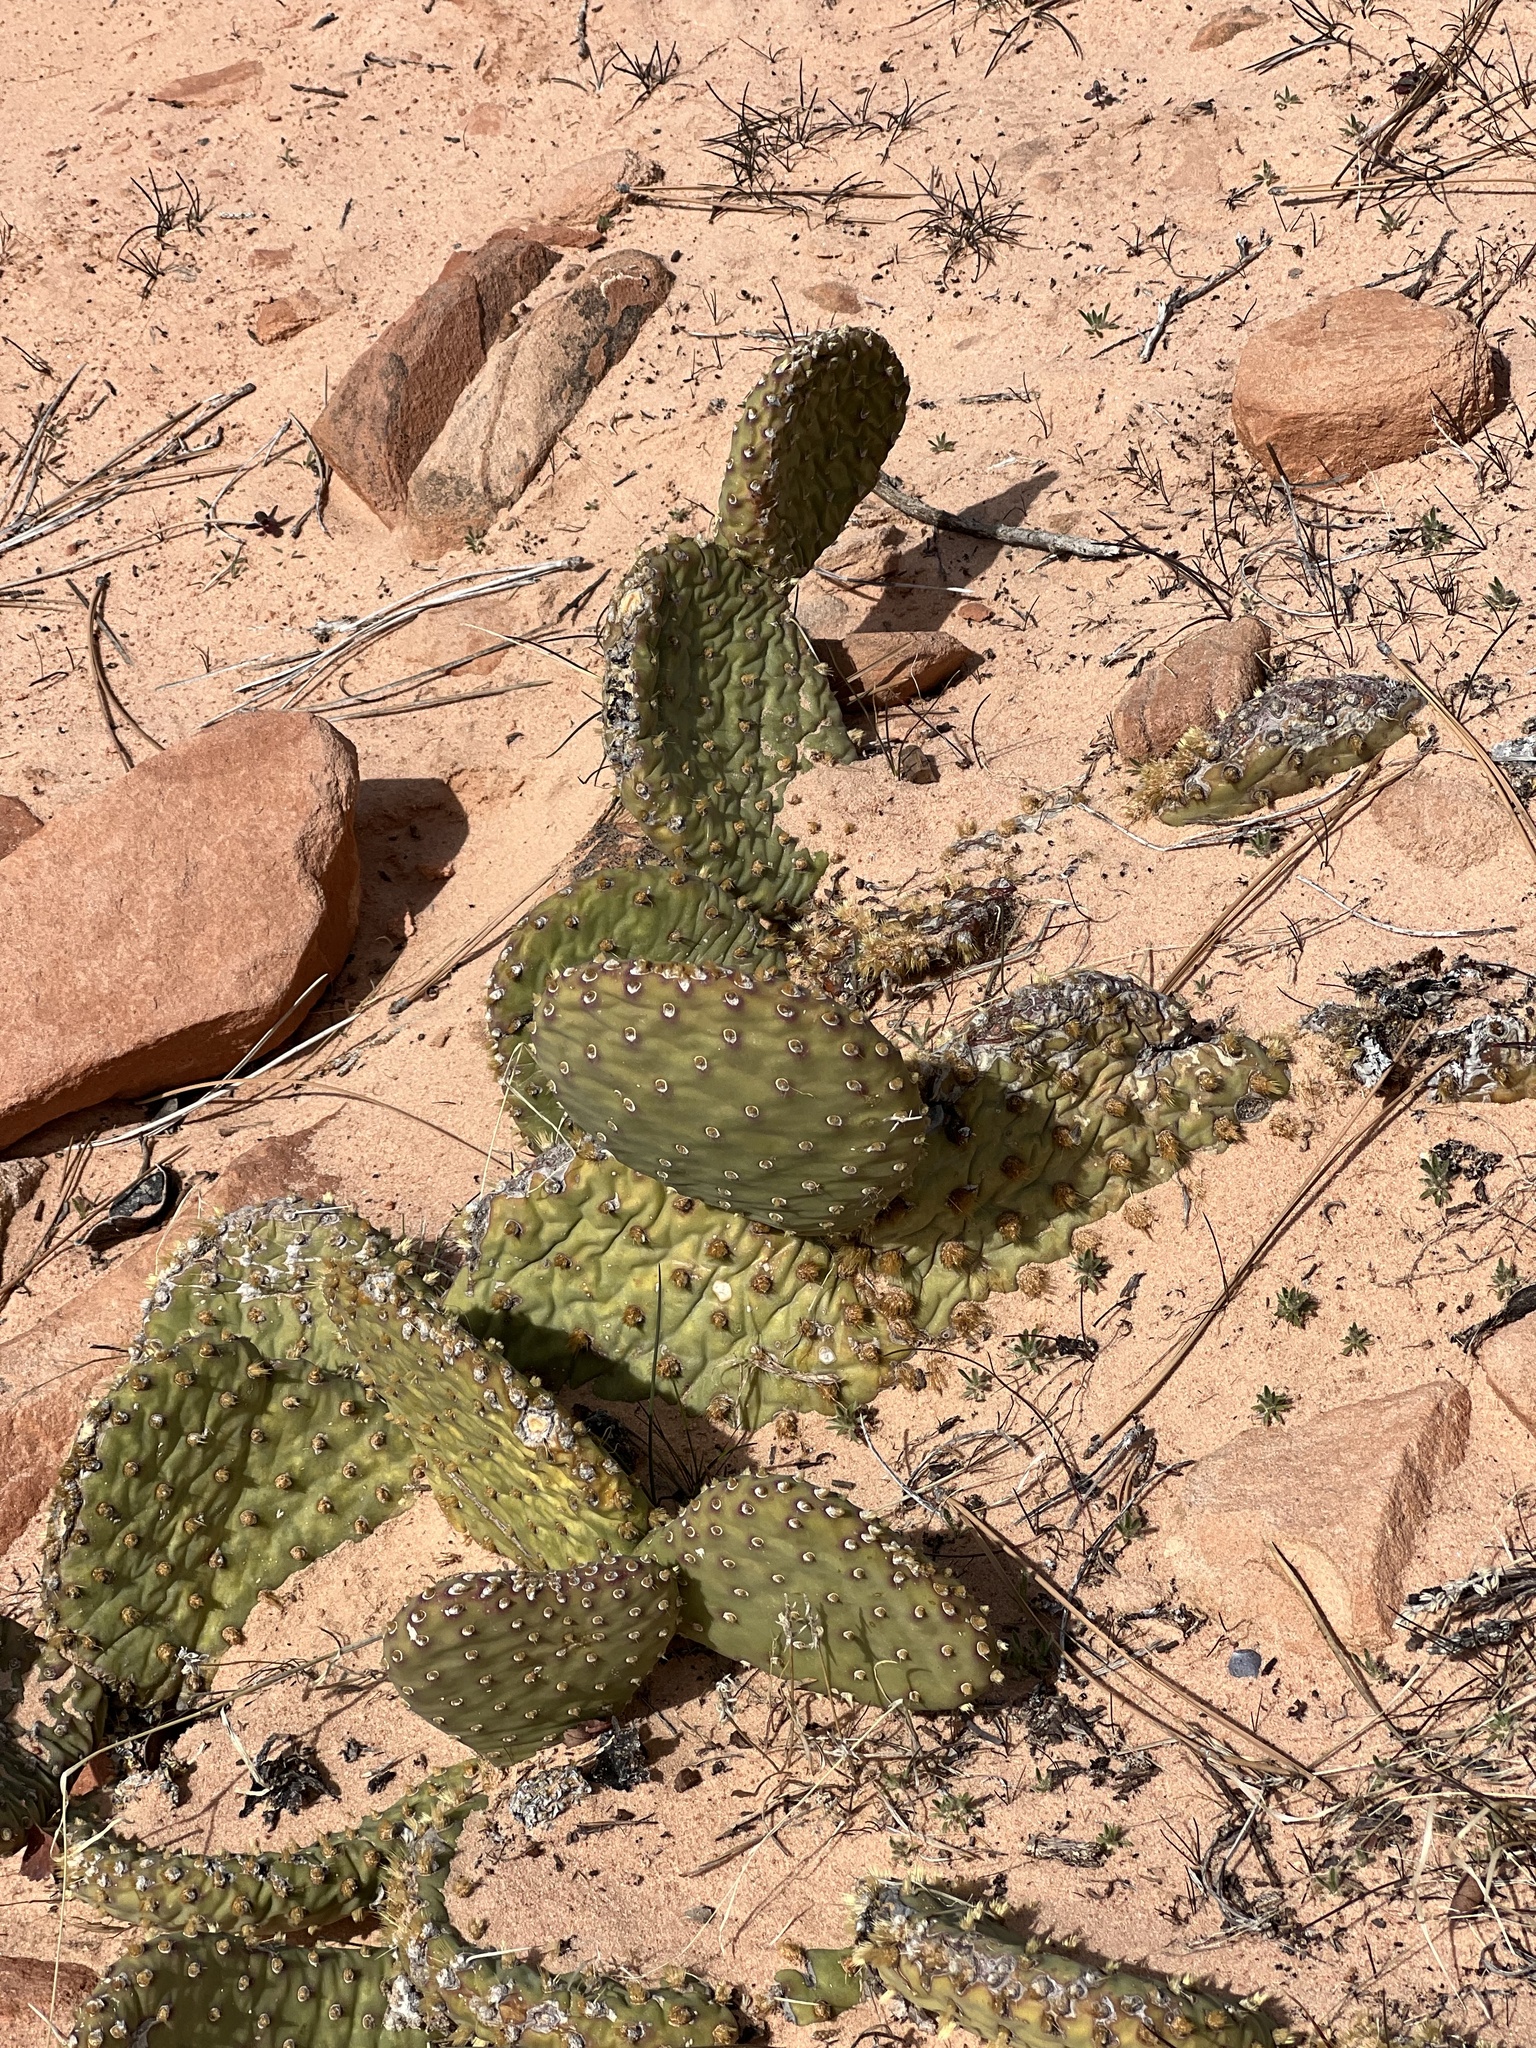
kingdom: Plantae
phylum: Tracheophyta
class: Magnoliopsida
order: Caryophyllales
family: Cactaceae
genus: Opuntia
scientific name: Opuntia aurea
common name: Golden prickly-pear
